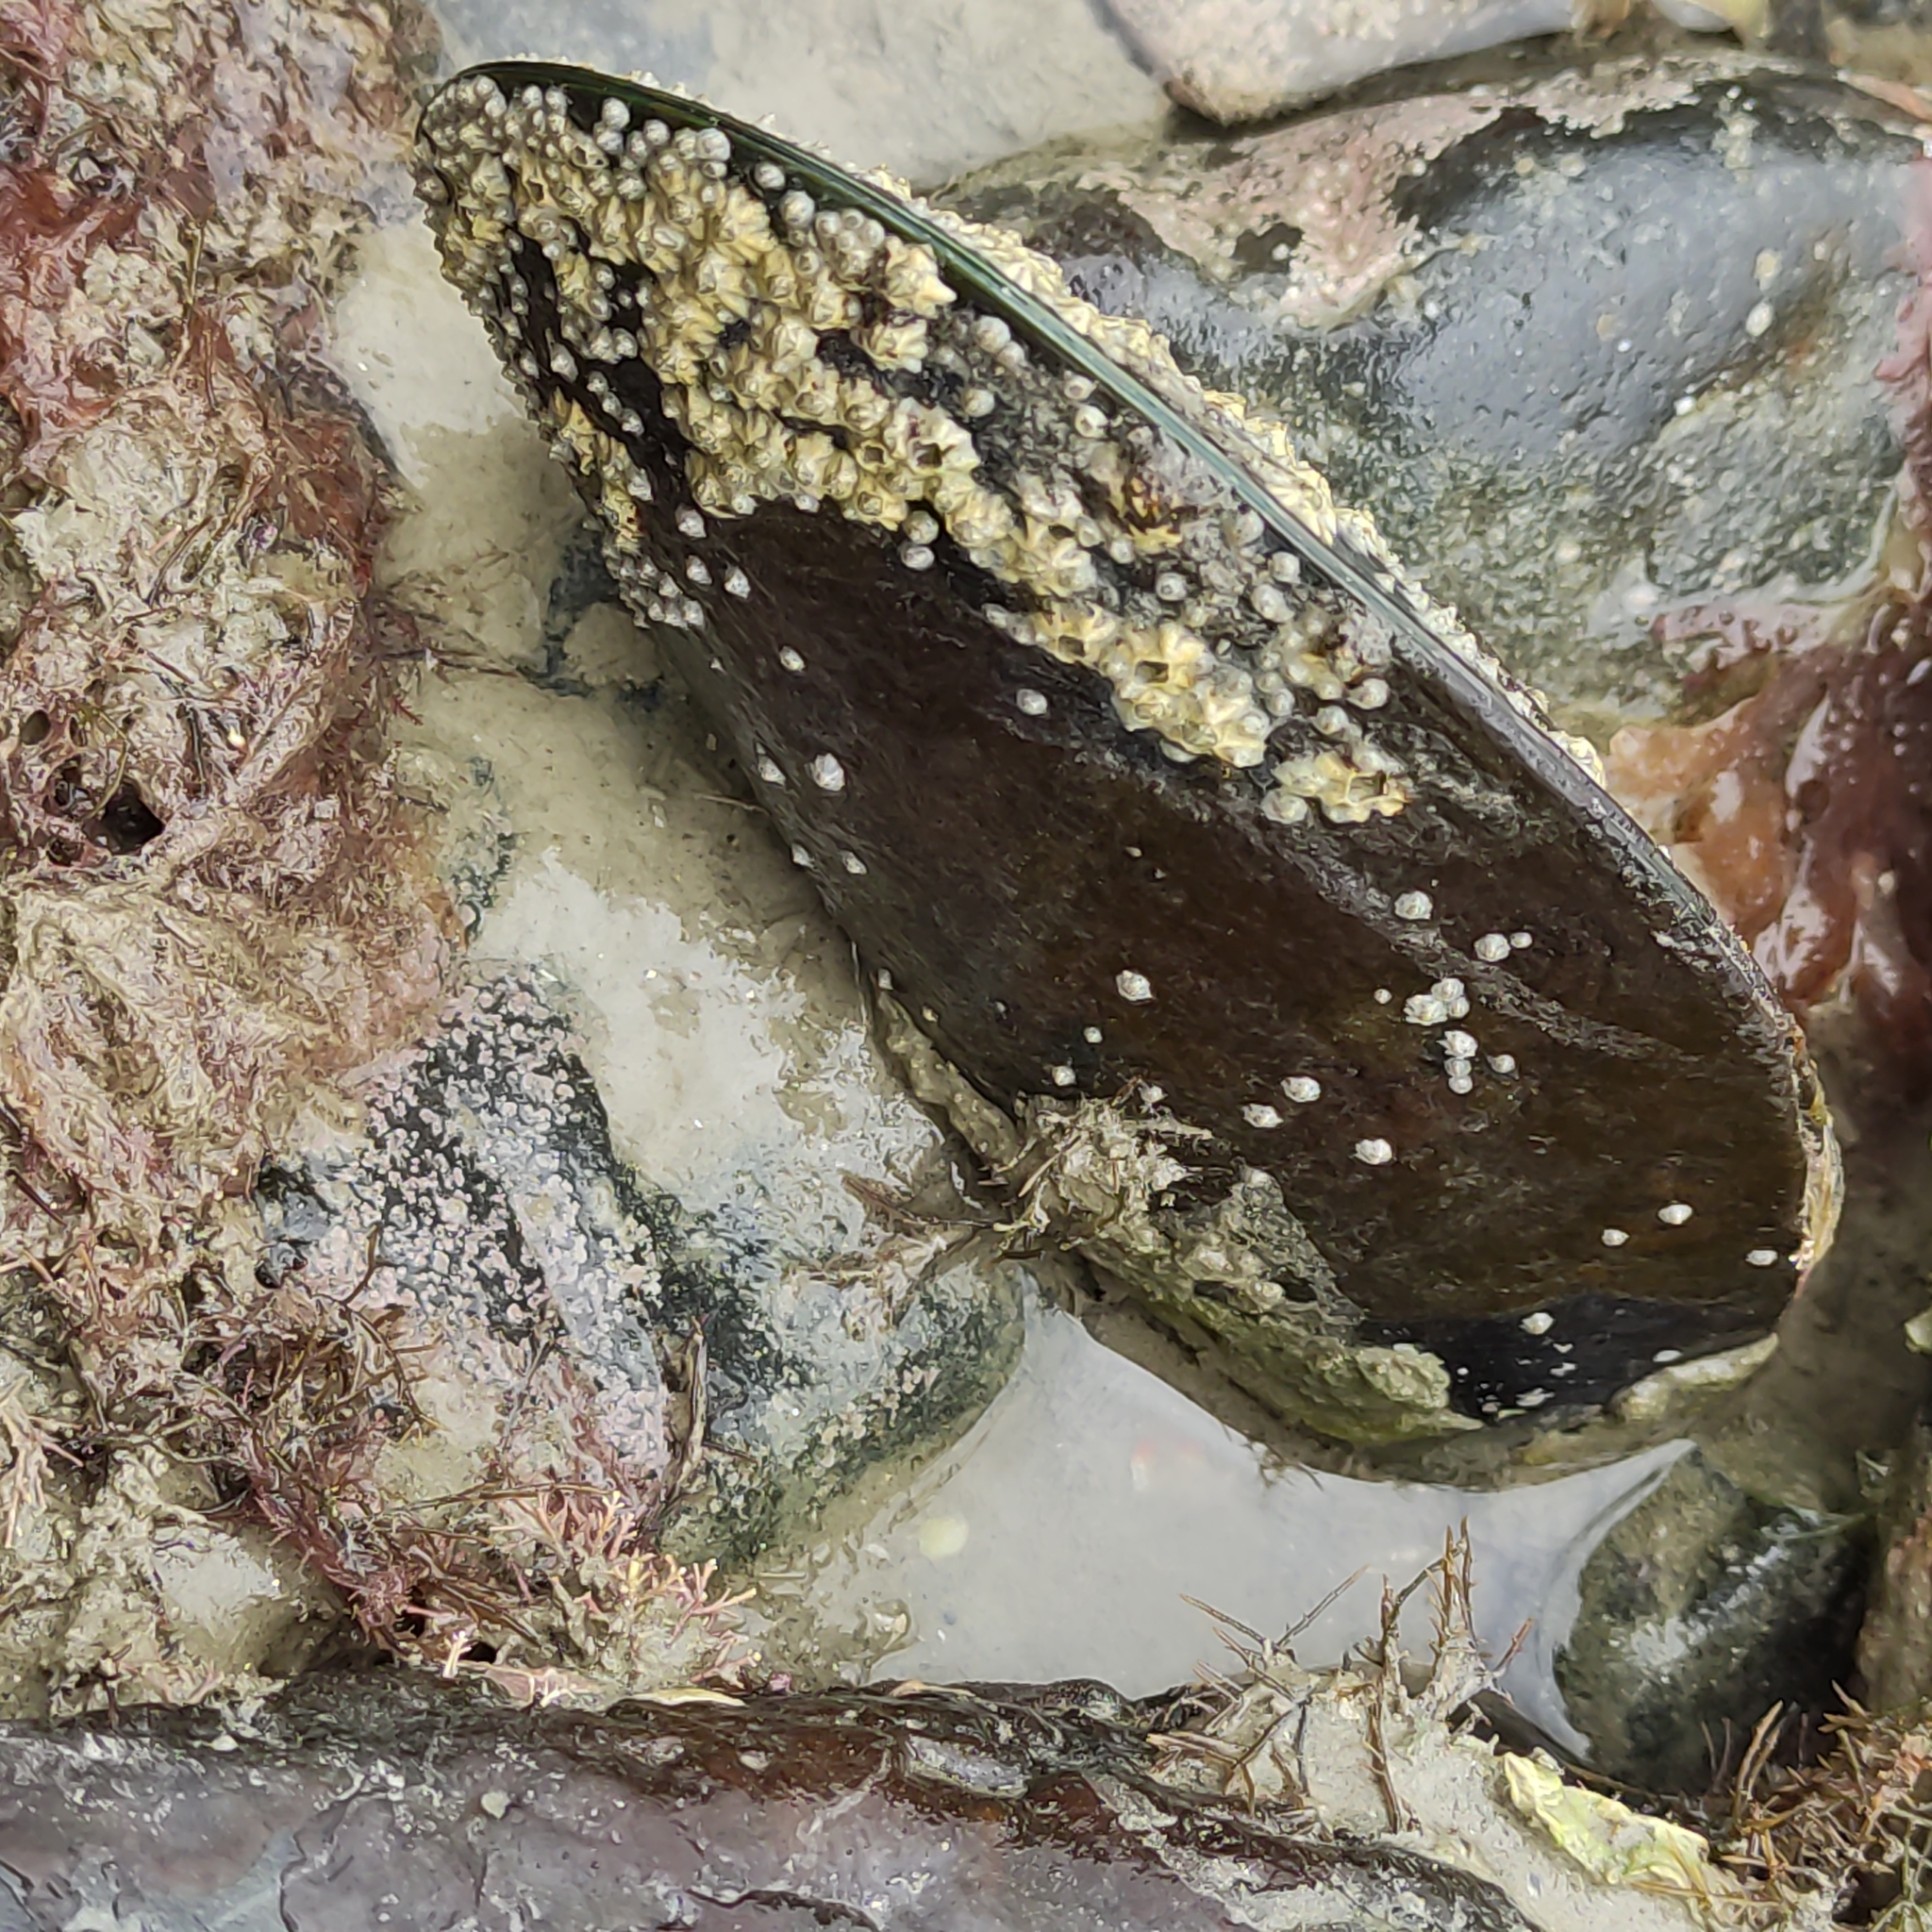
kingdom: Animalia
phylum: Mollusca
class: Bivalvia
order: Mytilida
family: Mytilidae
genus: Perna
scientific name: Perna canaliculus
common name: New zealand greenshelltm
